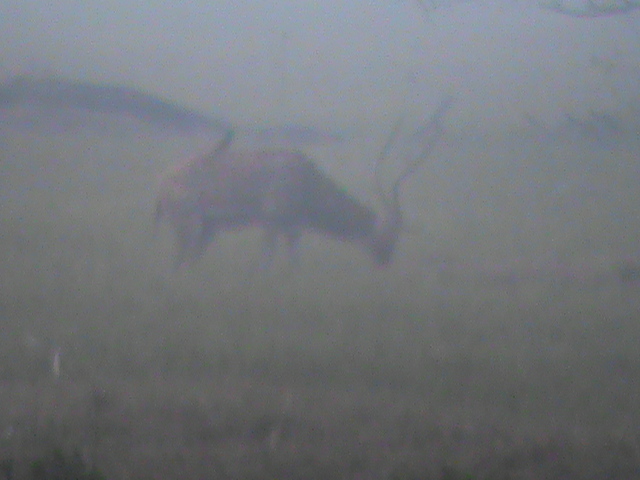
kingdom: Animalia
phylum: Chordata
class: Mammalia
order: Artiodactyla
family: Cervidae
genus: Axis
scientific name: Axis axis
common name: Chital
